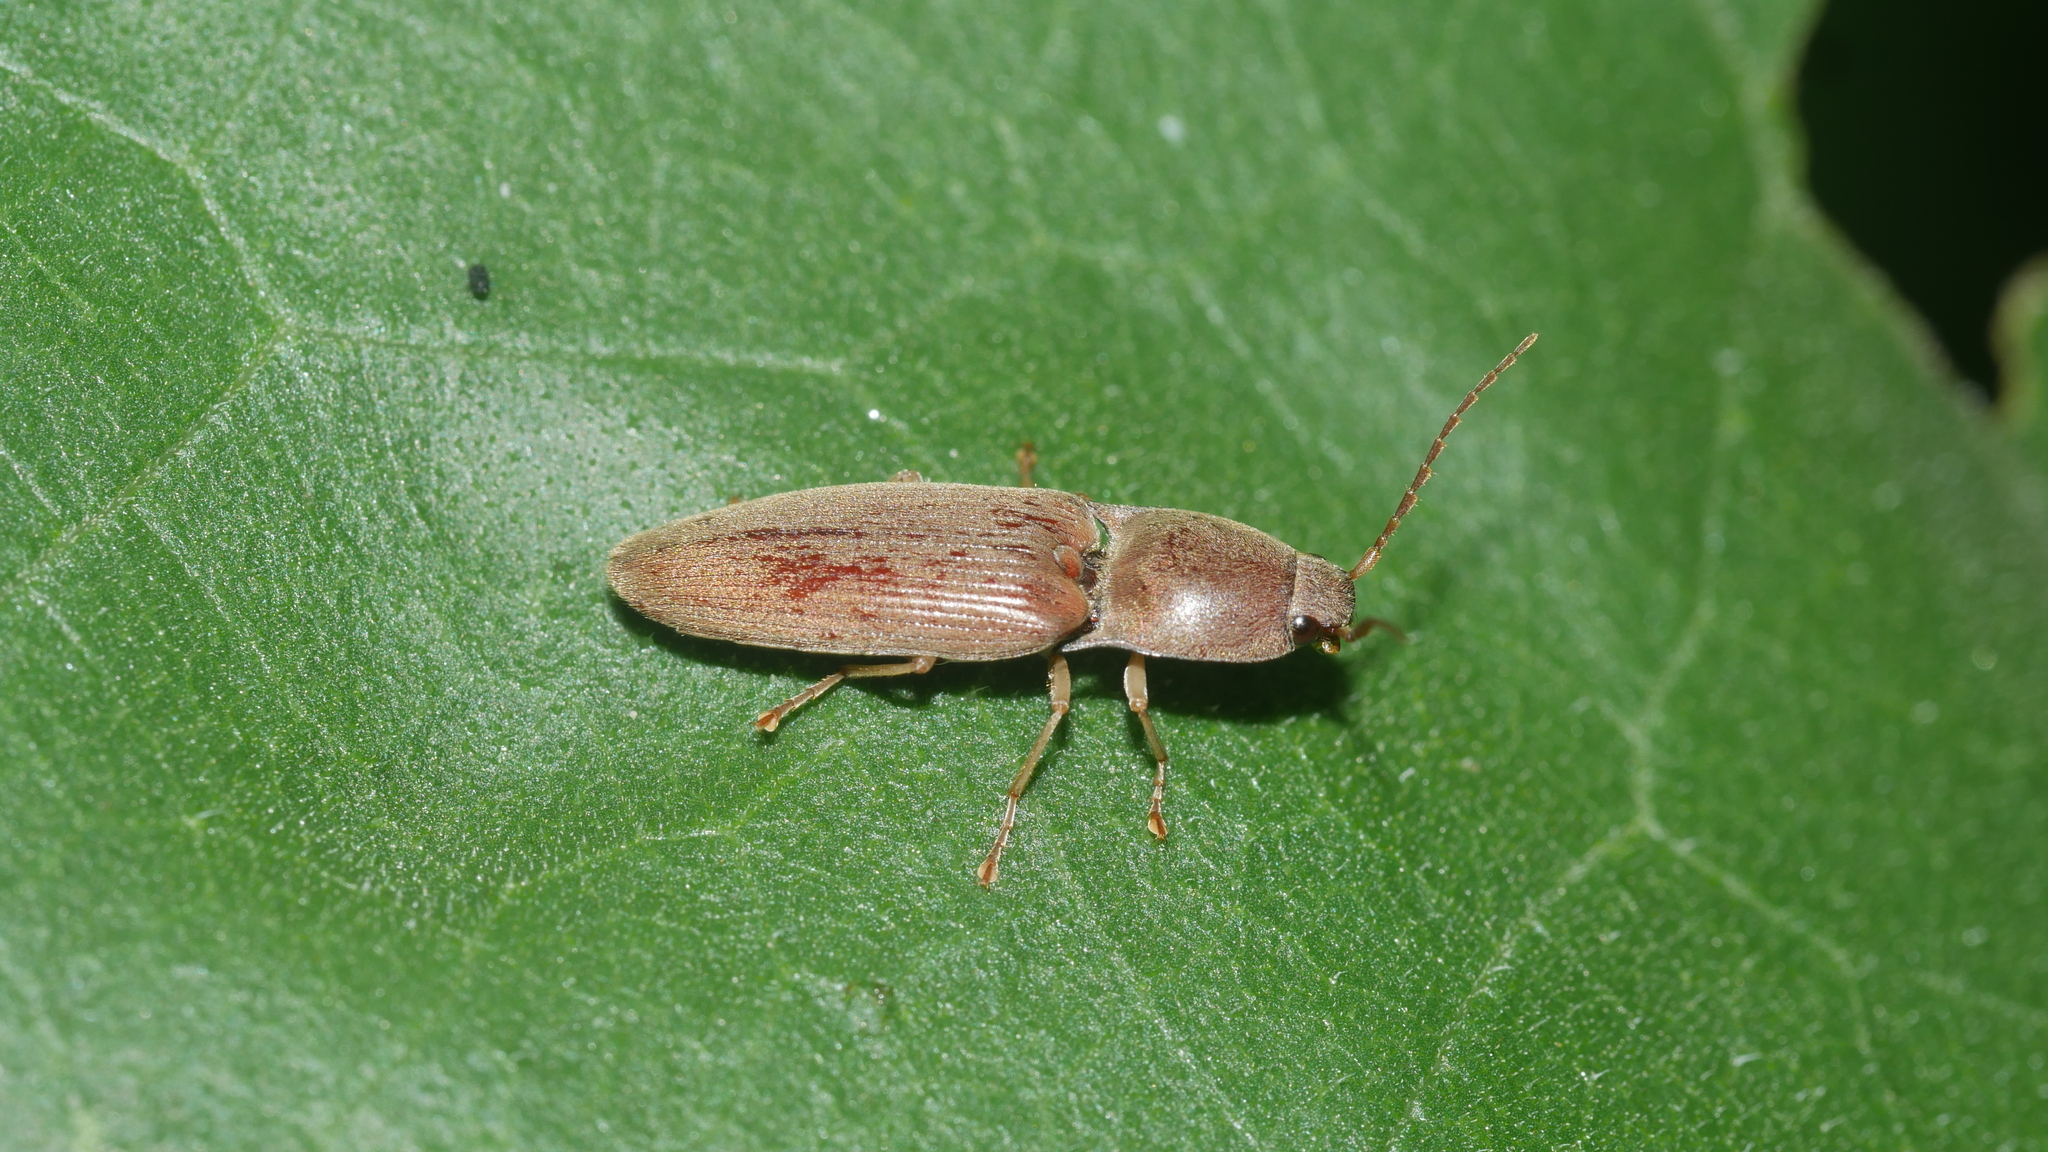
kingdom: Animalia
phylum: Arthropoda
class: Insecta
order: Coleoptera
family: Elateridae
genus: Monocrepidius
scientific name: Monocrepidius lividus
